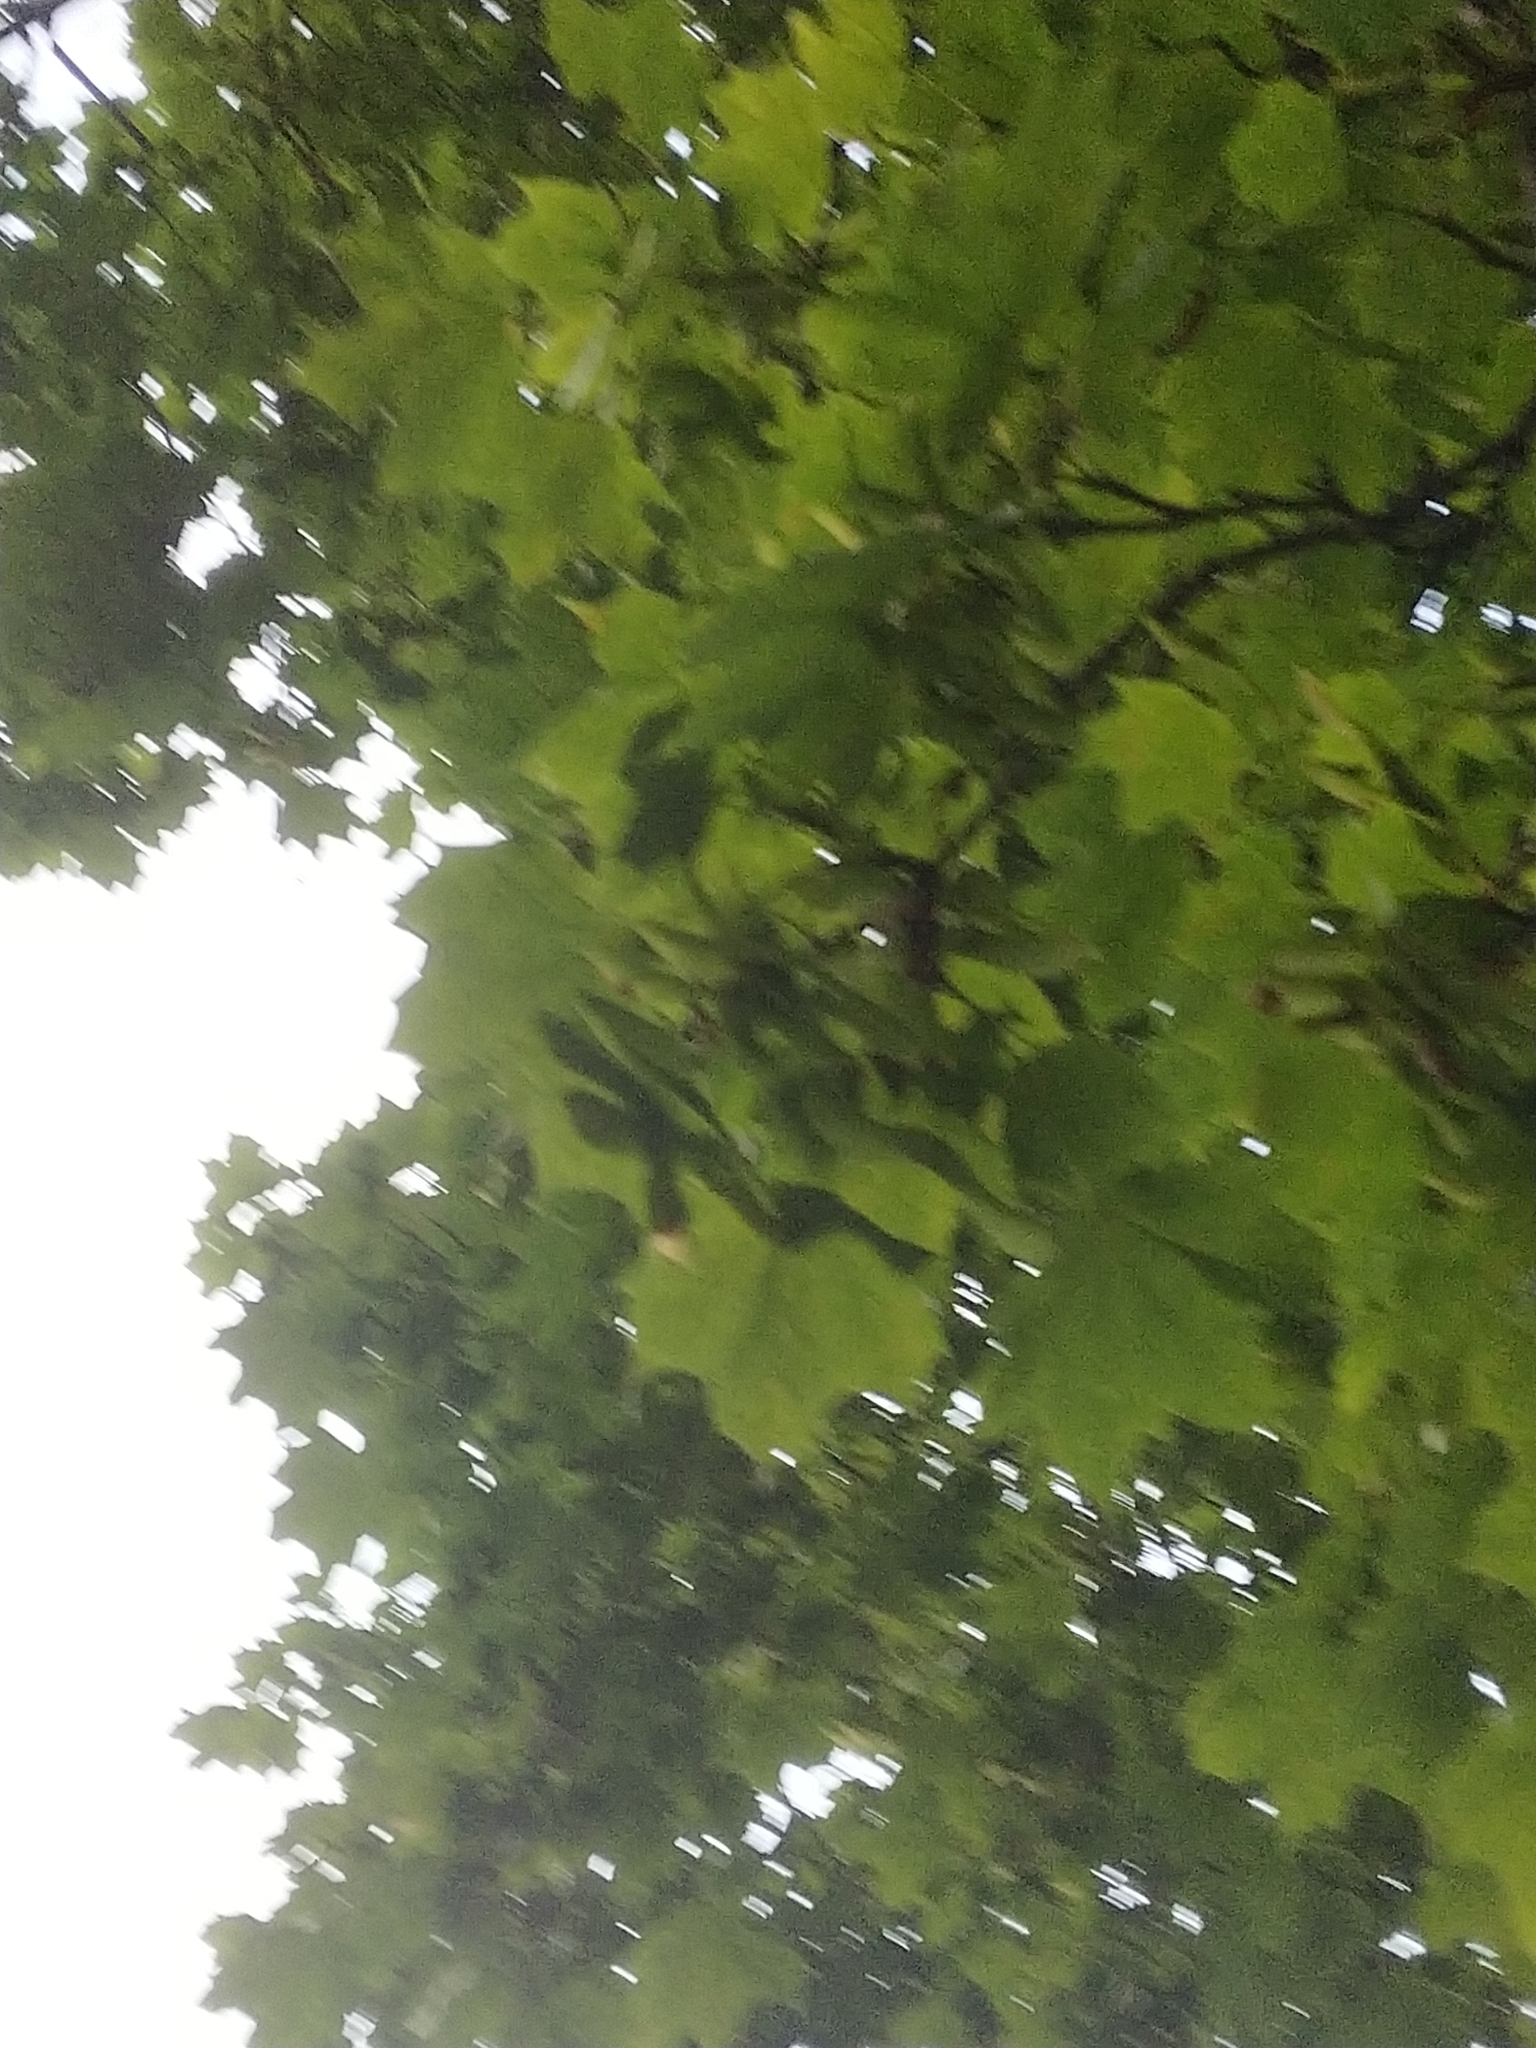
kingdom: Plantae
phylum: Tracheophyta
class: Magnoliopsida
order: Sapindales
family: Sapindaceae
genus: Acer
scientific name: Acer platanoides
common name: Norway maple
